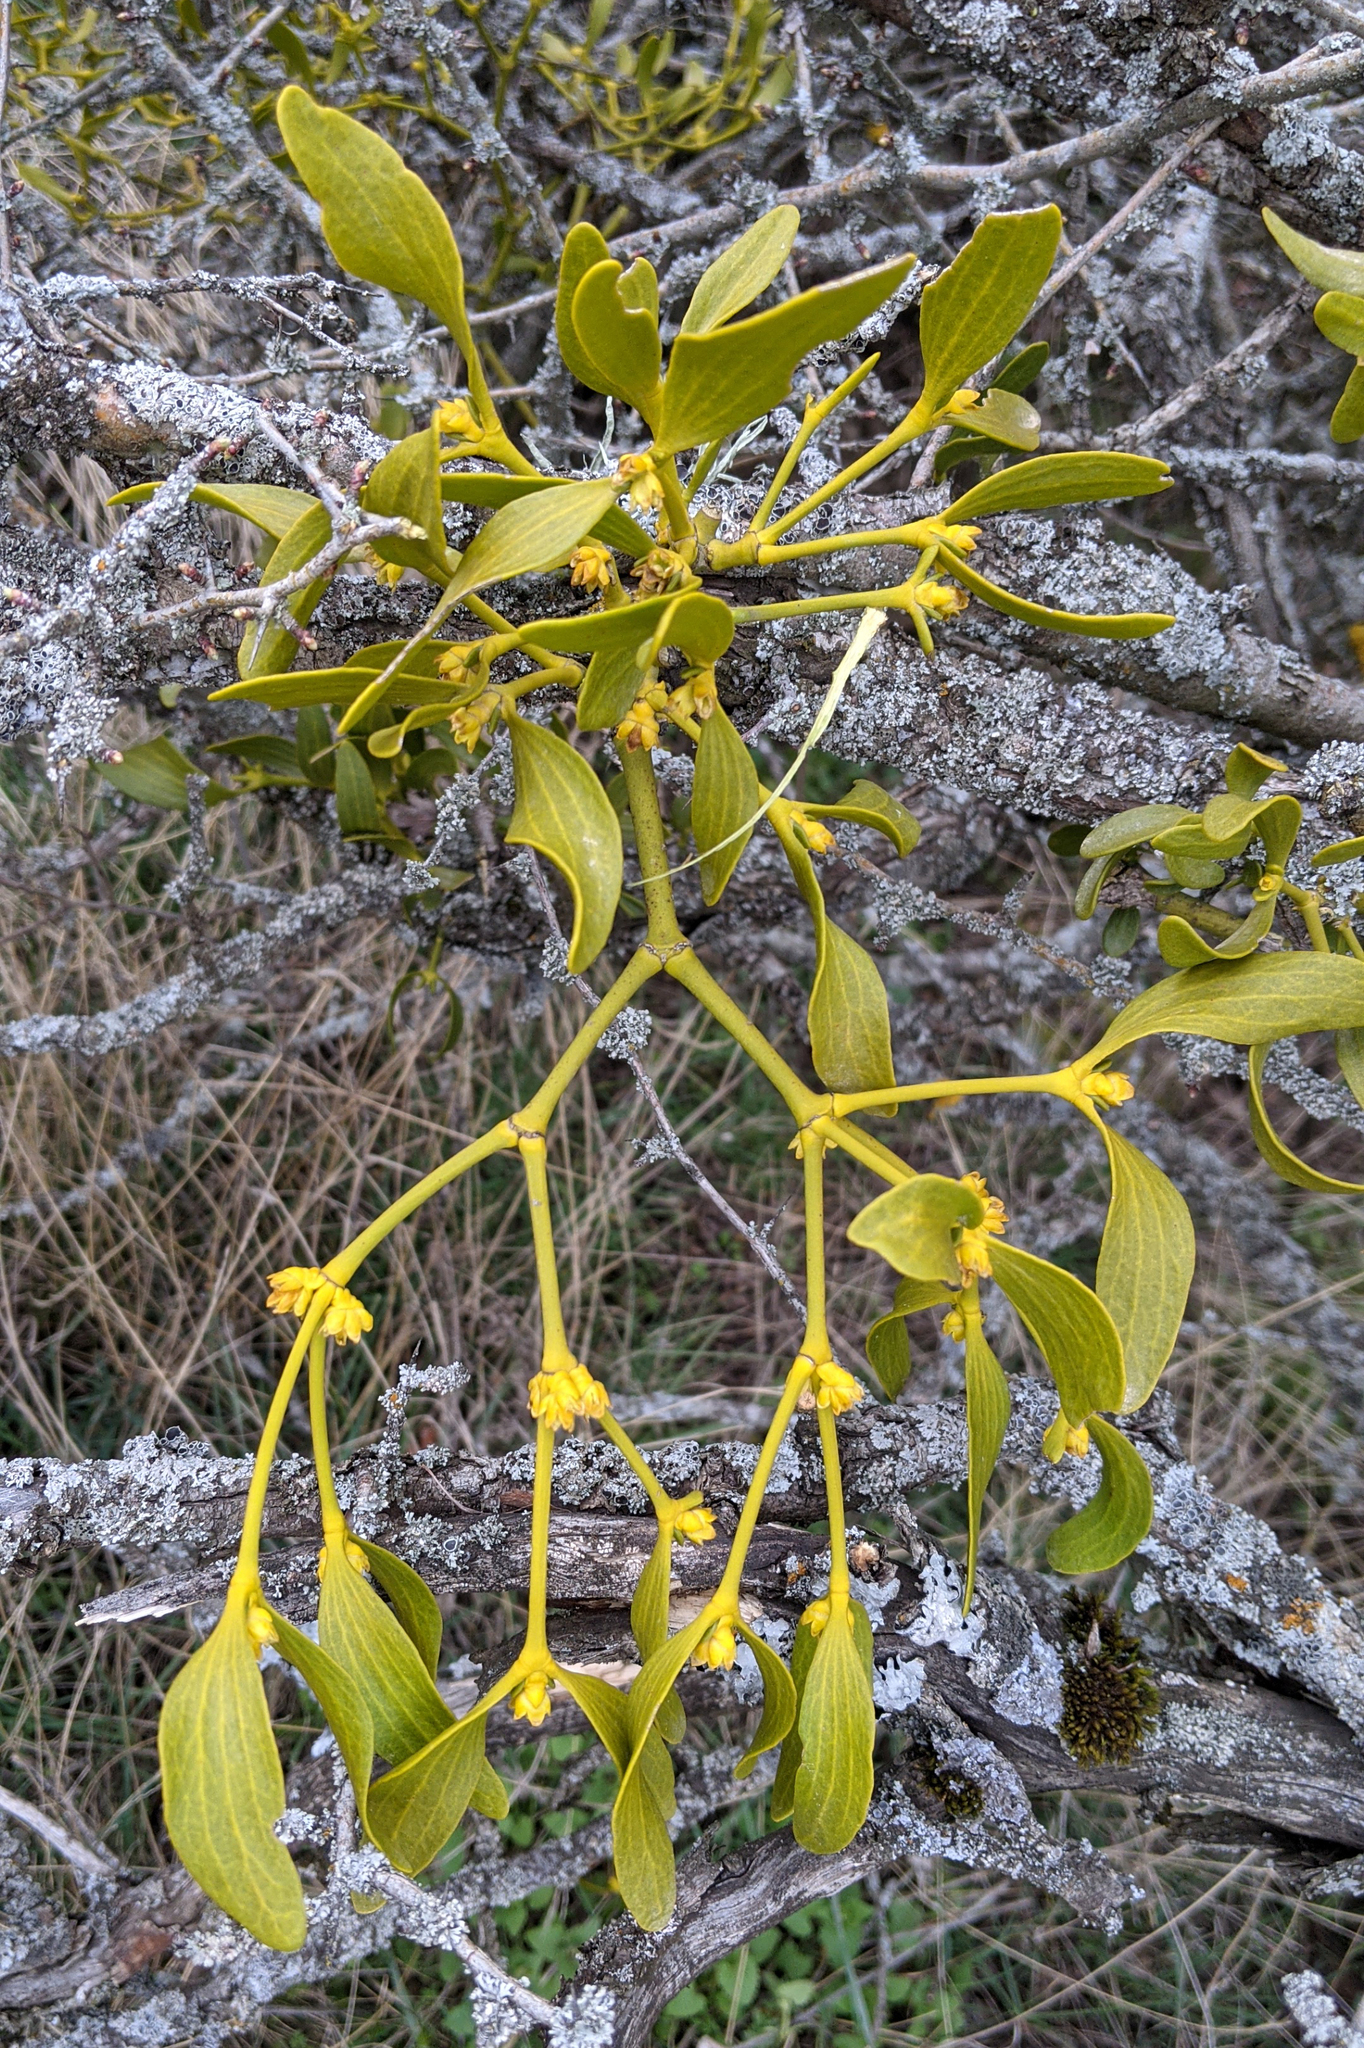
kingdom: Plantae
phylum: Tracheophyta
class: Magnoliopsida
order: Santalales
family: Viscaceae
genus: Viscum
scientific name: Viscum album
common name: Mistletoe
